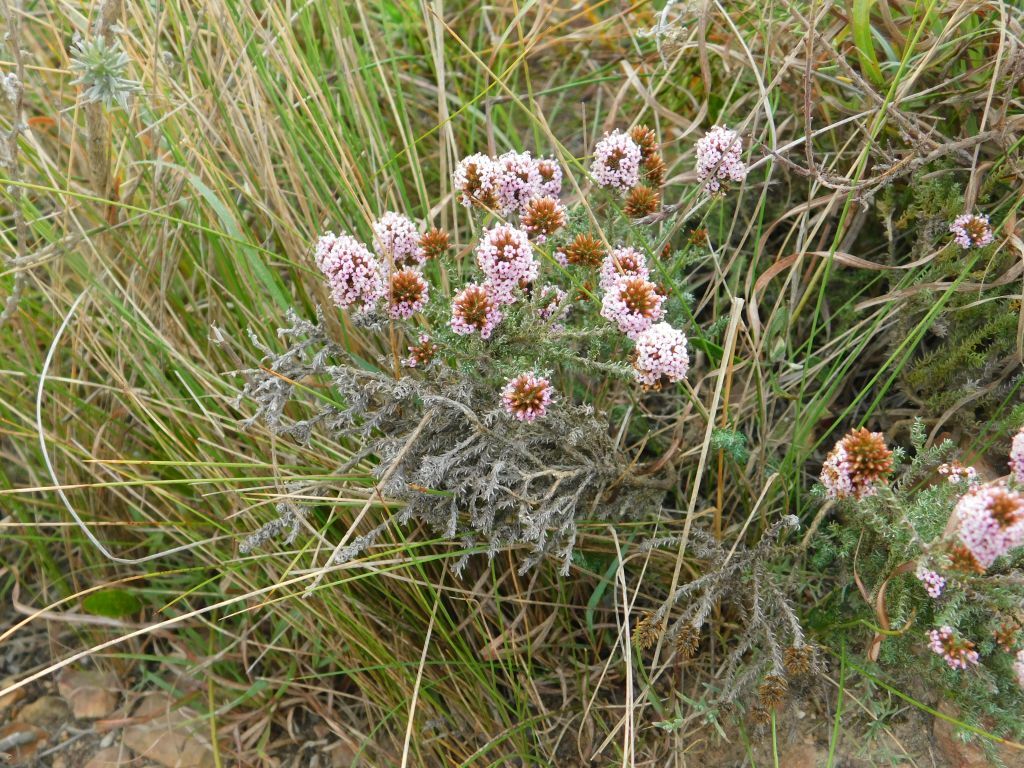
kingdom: Plantae
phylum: Tracheophyta
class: Magnoliopsida
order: Asterales
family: Asteraceae
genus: Stoebe
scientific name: Stoebe fusca
